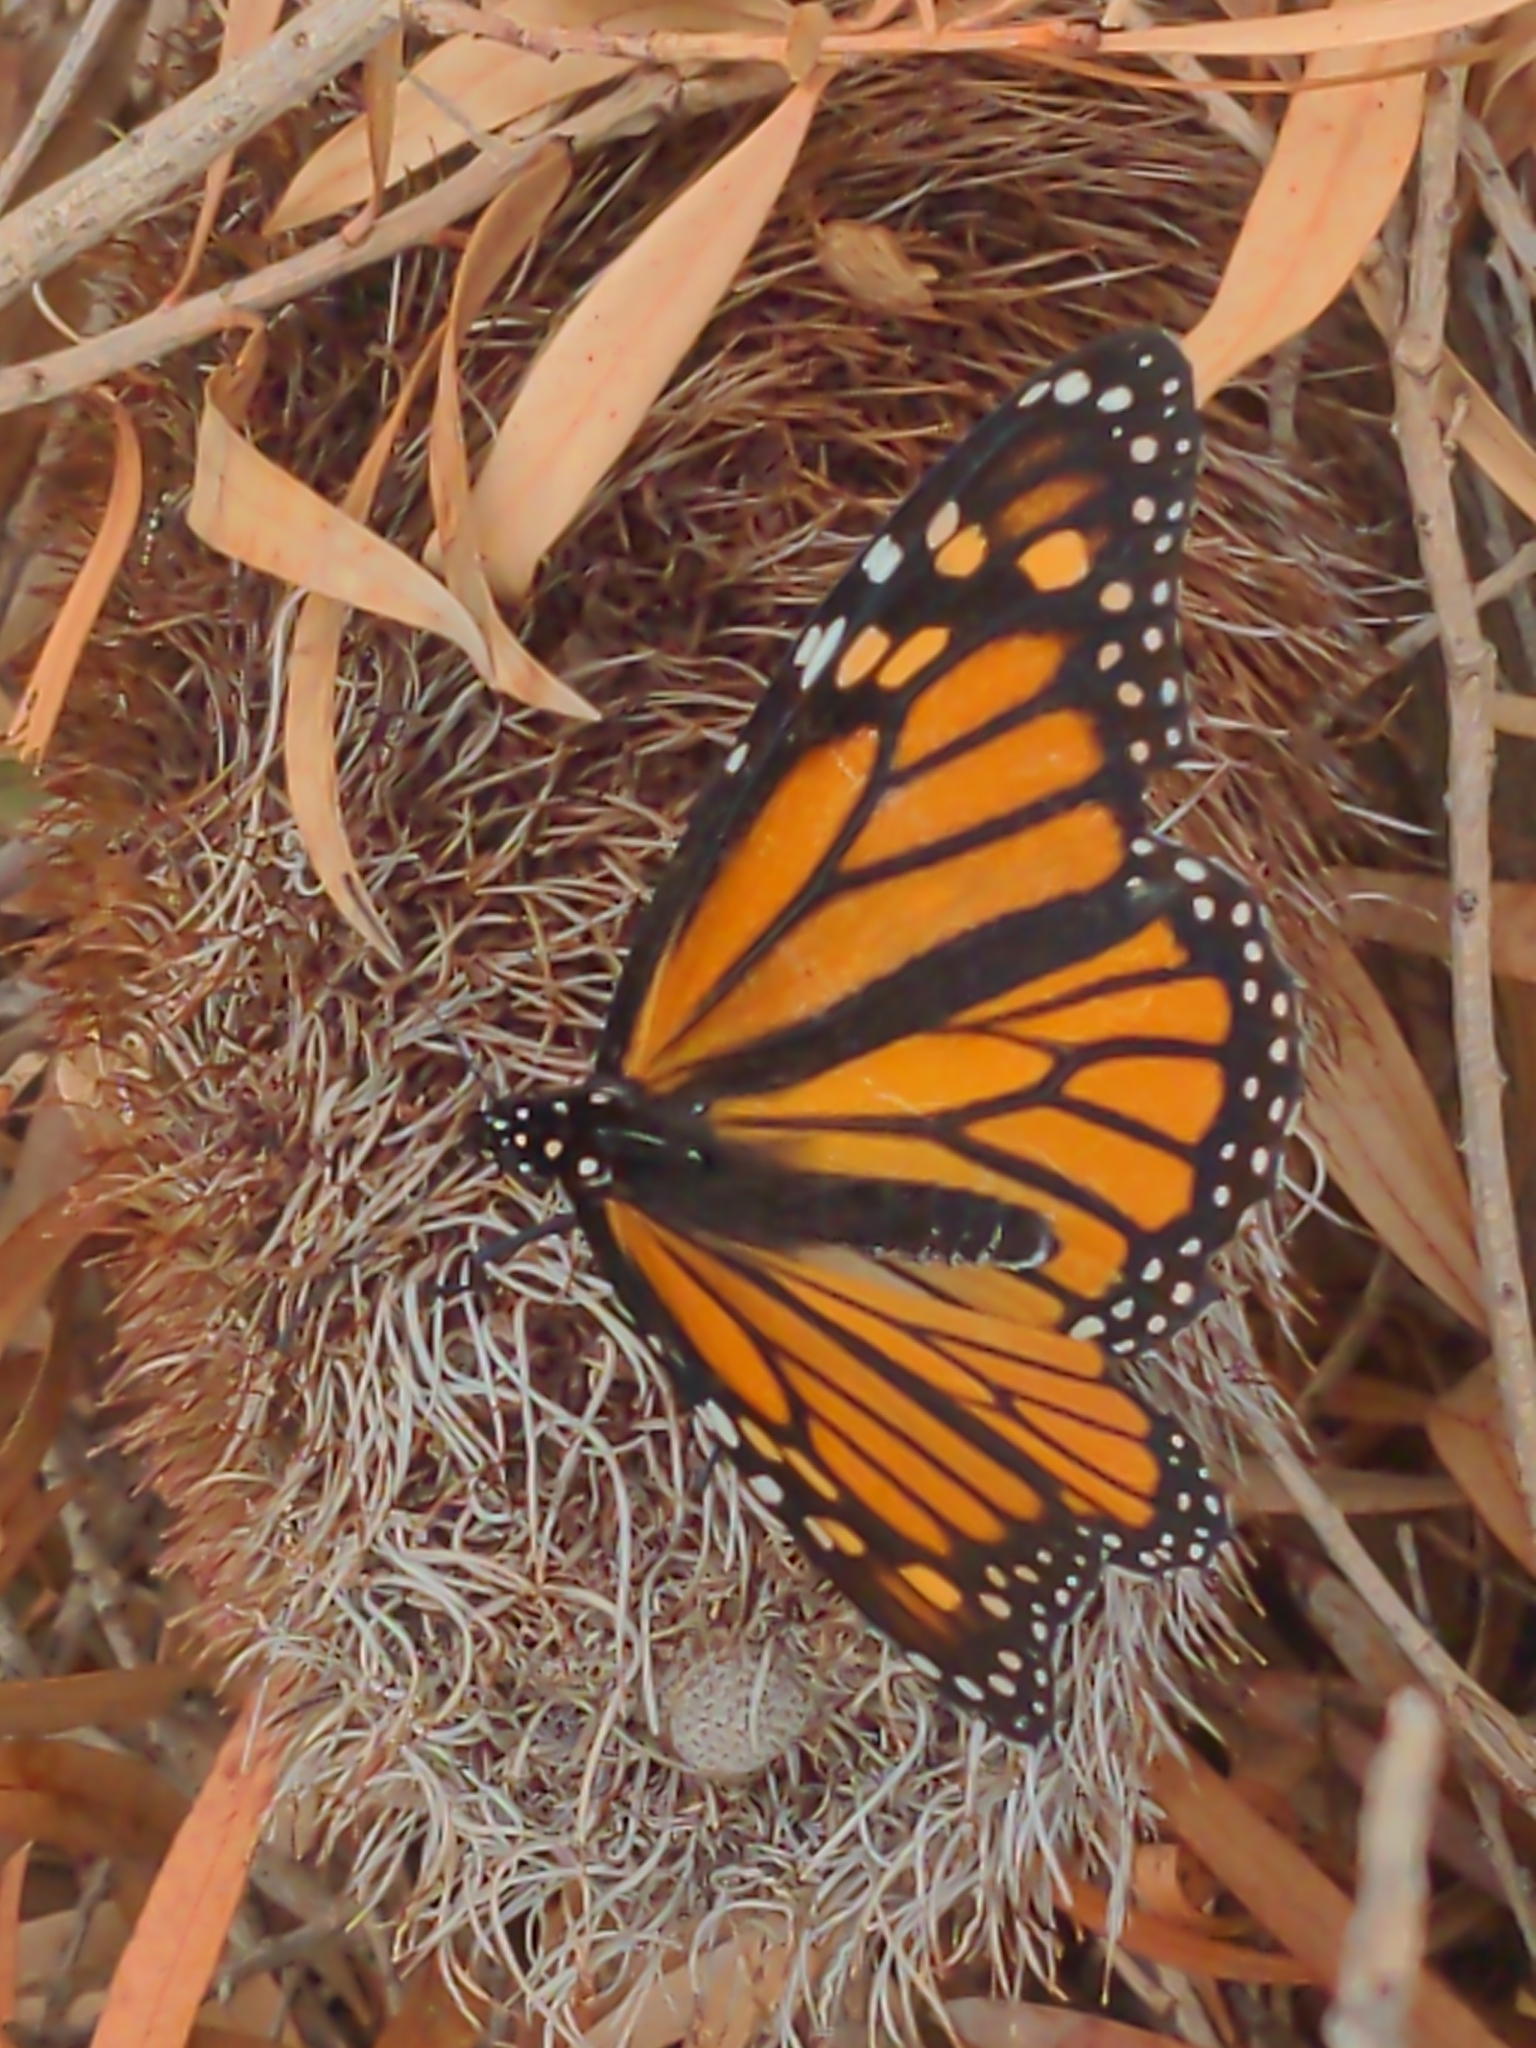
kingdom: Animalia
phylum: Arthropoda
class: Insecta
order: Lepidoptera
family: Nymphalidae
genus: Danaus
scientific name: Danaus plexippus
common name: Monarch
